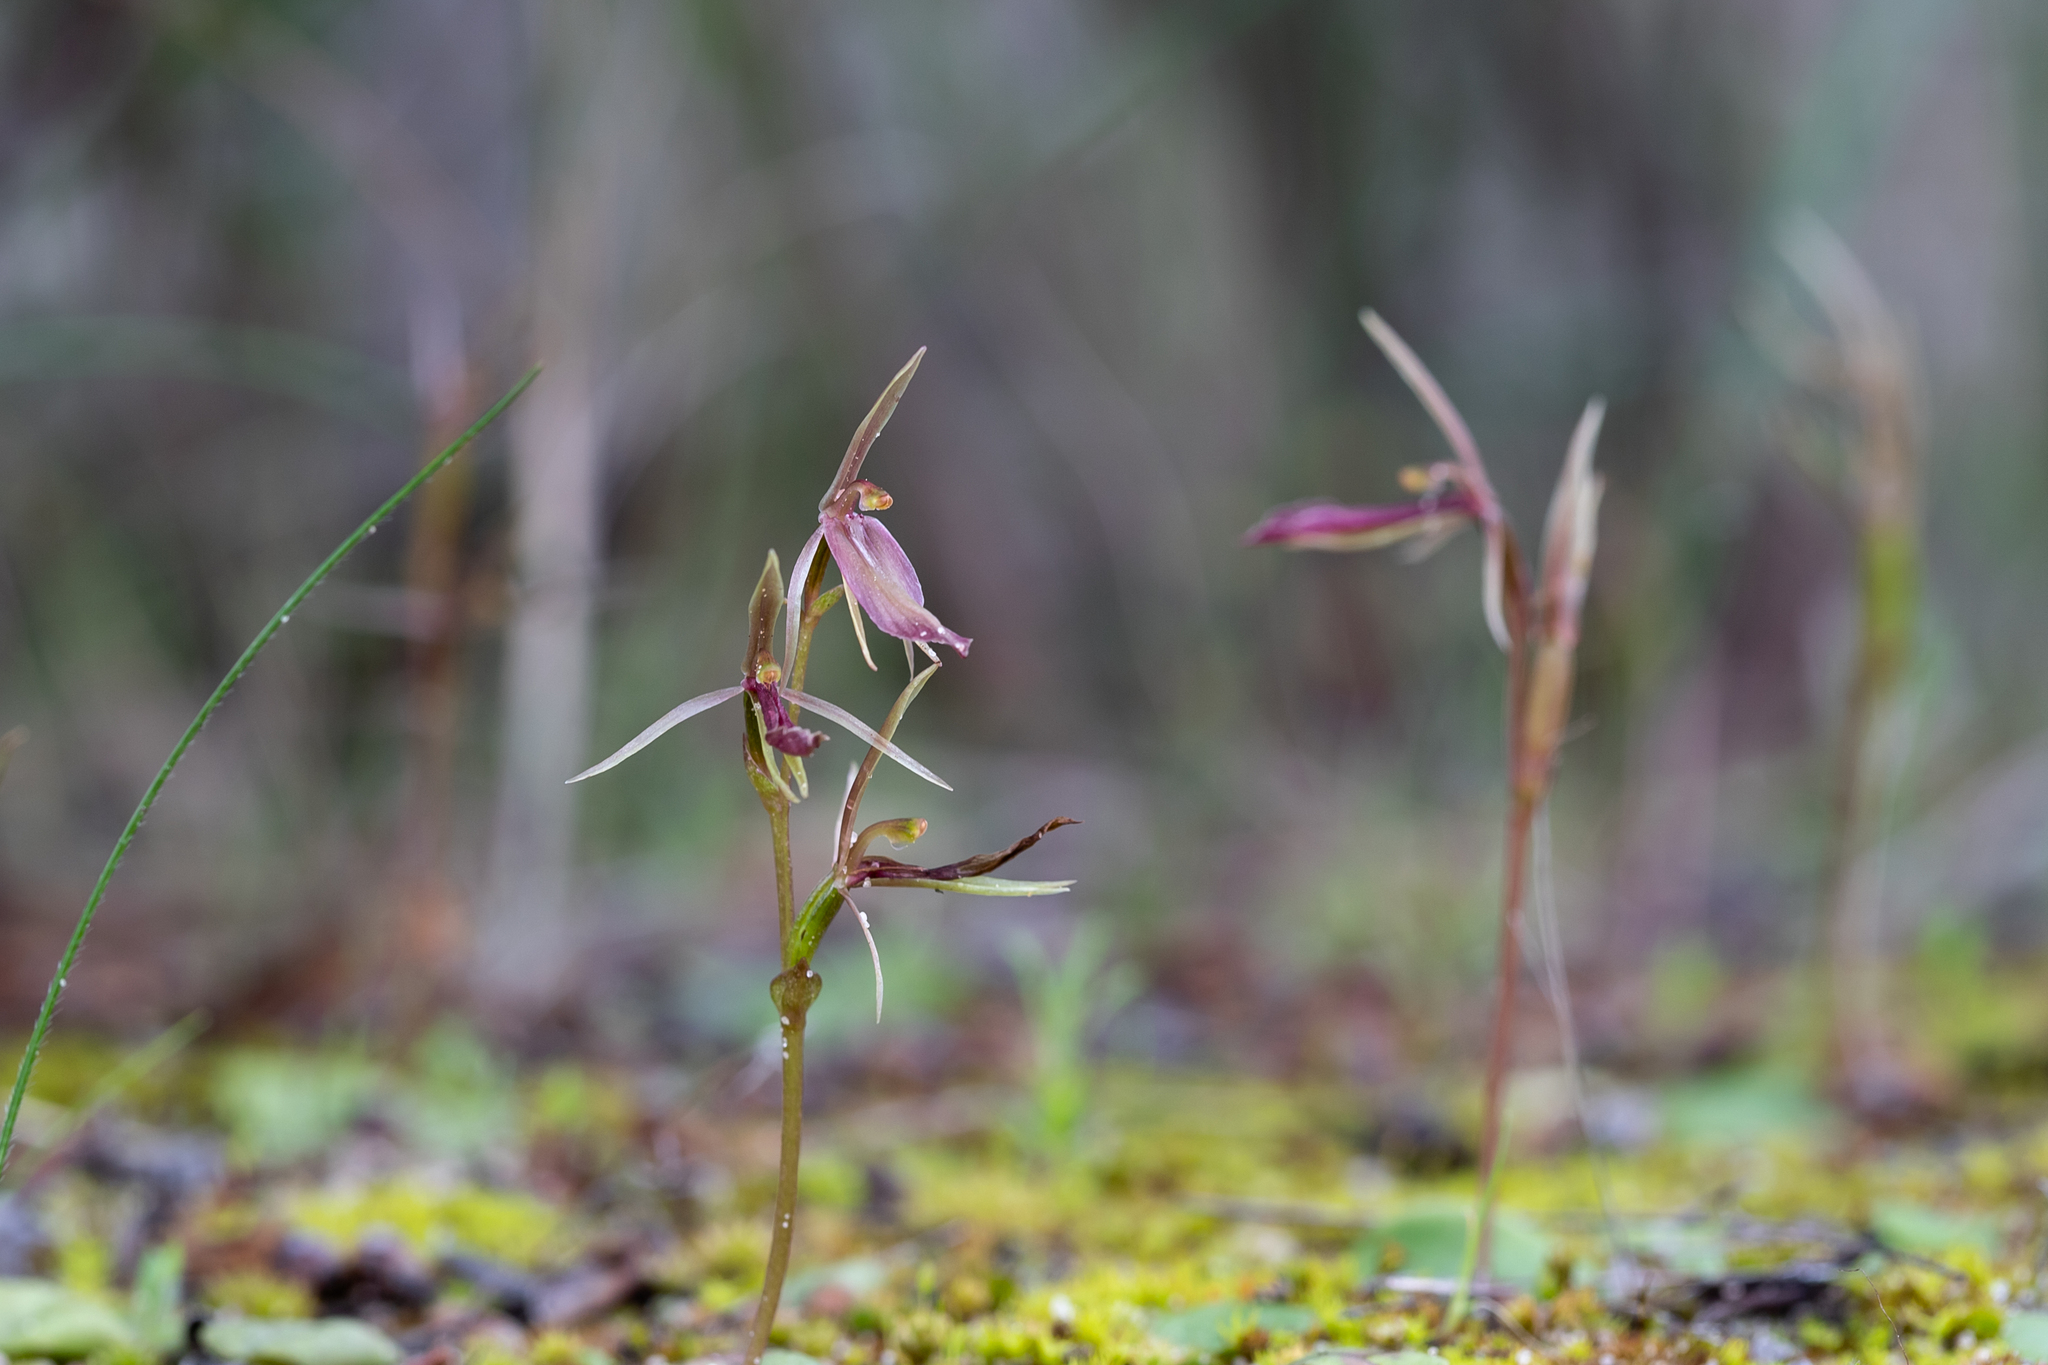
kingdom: Plantae
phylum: Tracheophyta
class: Liliopsida
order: Asparagales
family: Orchidaceae
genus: Cyrtostylis
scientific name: Cyrtostylis robusta
